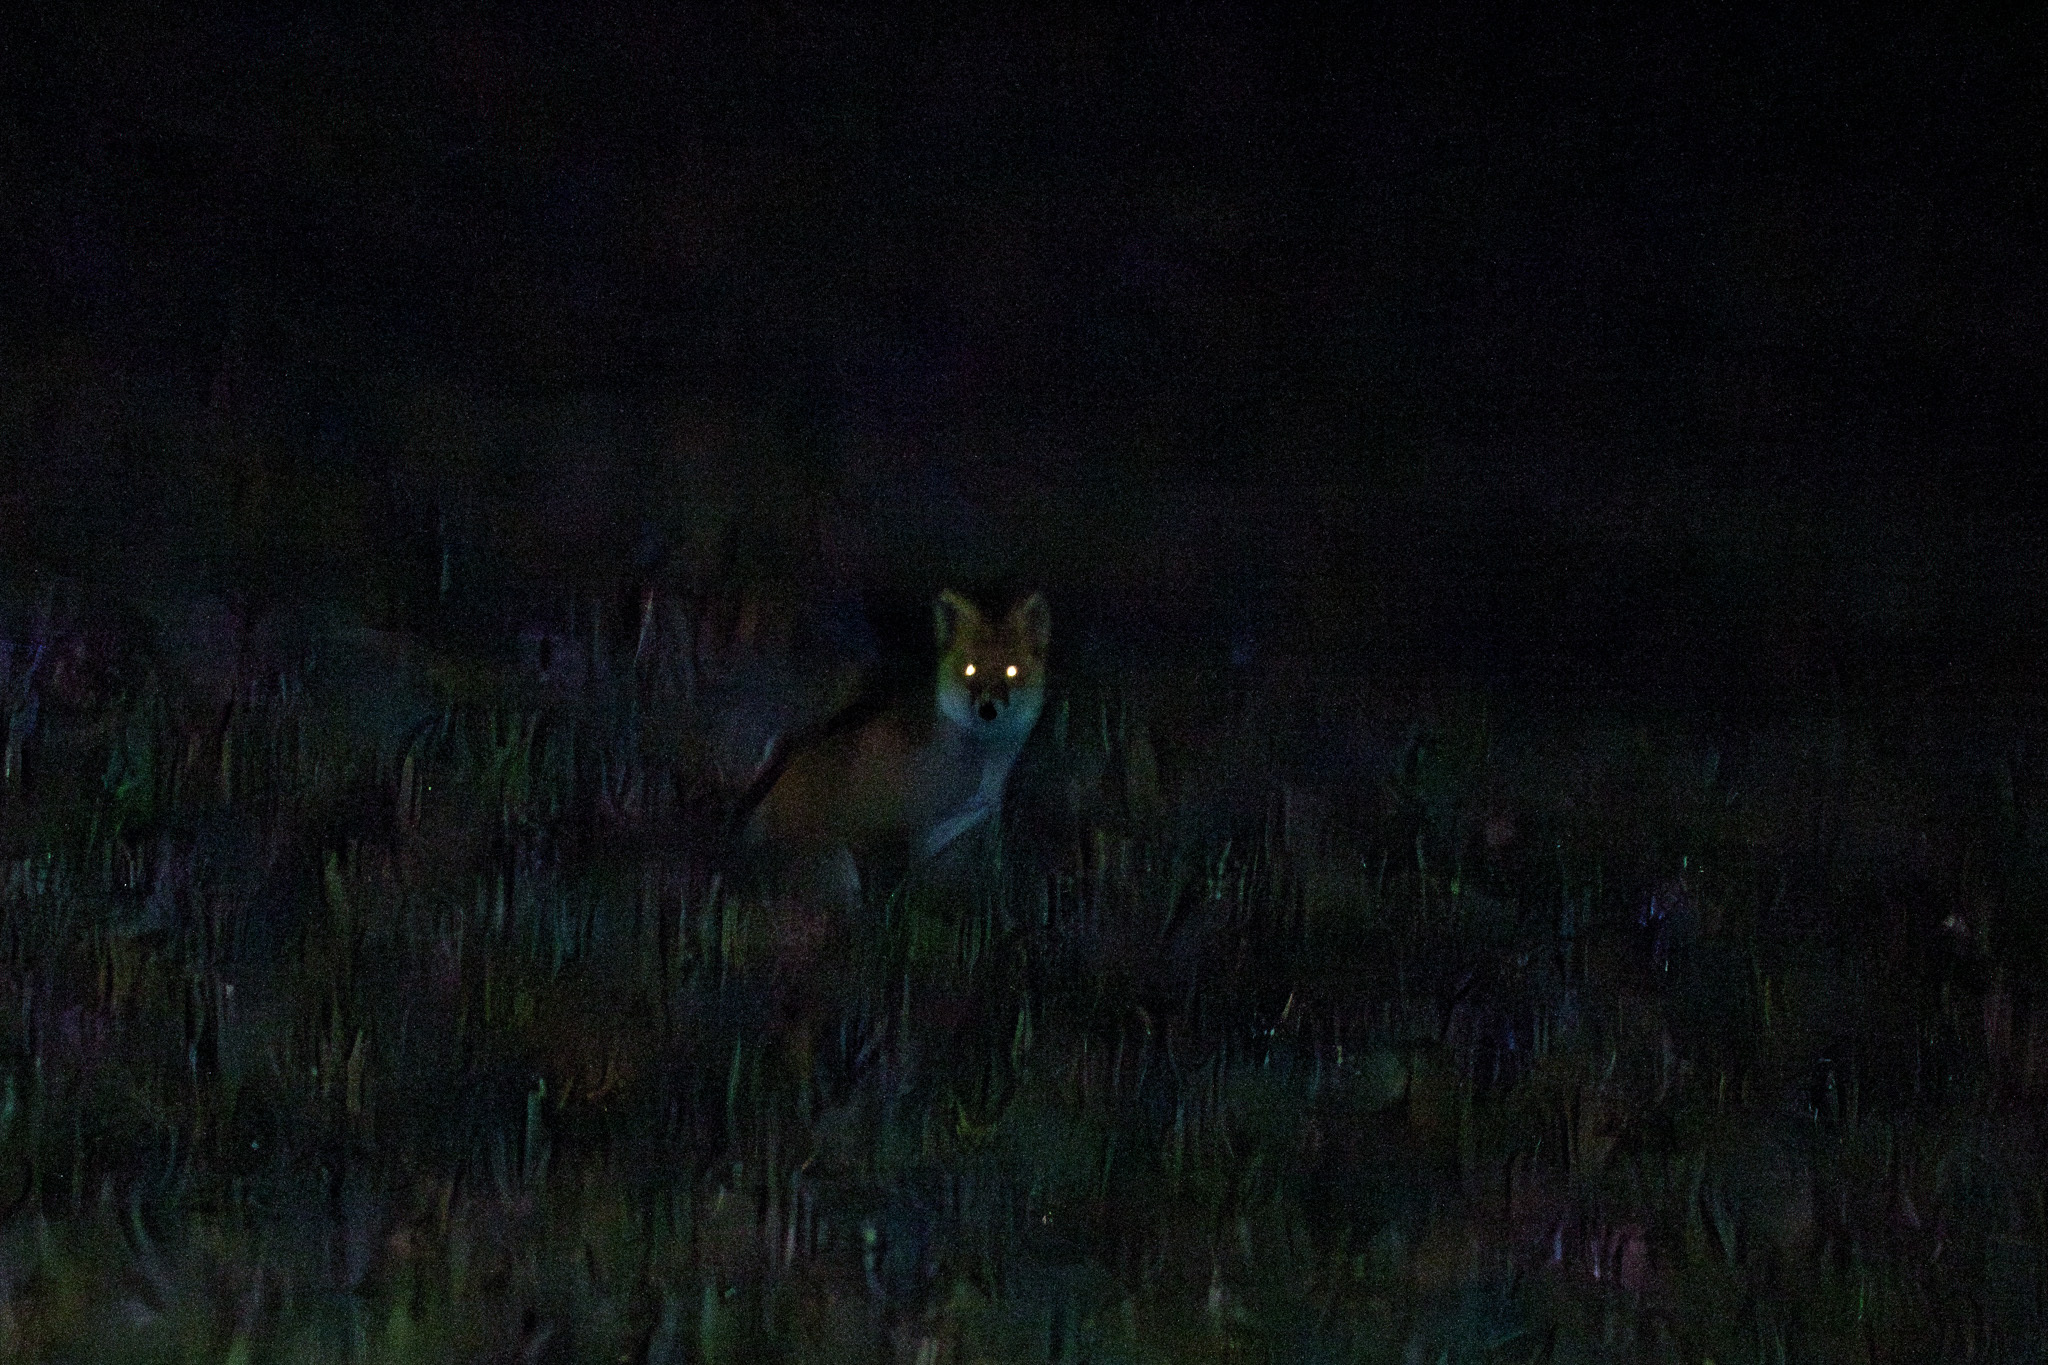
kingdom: Animalia
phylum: Chordata
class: Mammalia
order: Carnivora
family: Canidae
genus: Vulpes
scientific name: Vulpes vulpes
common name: Red fox
